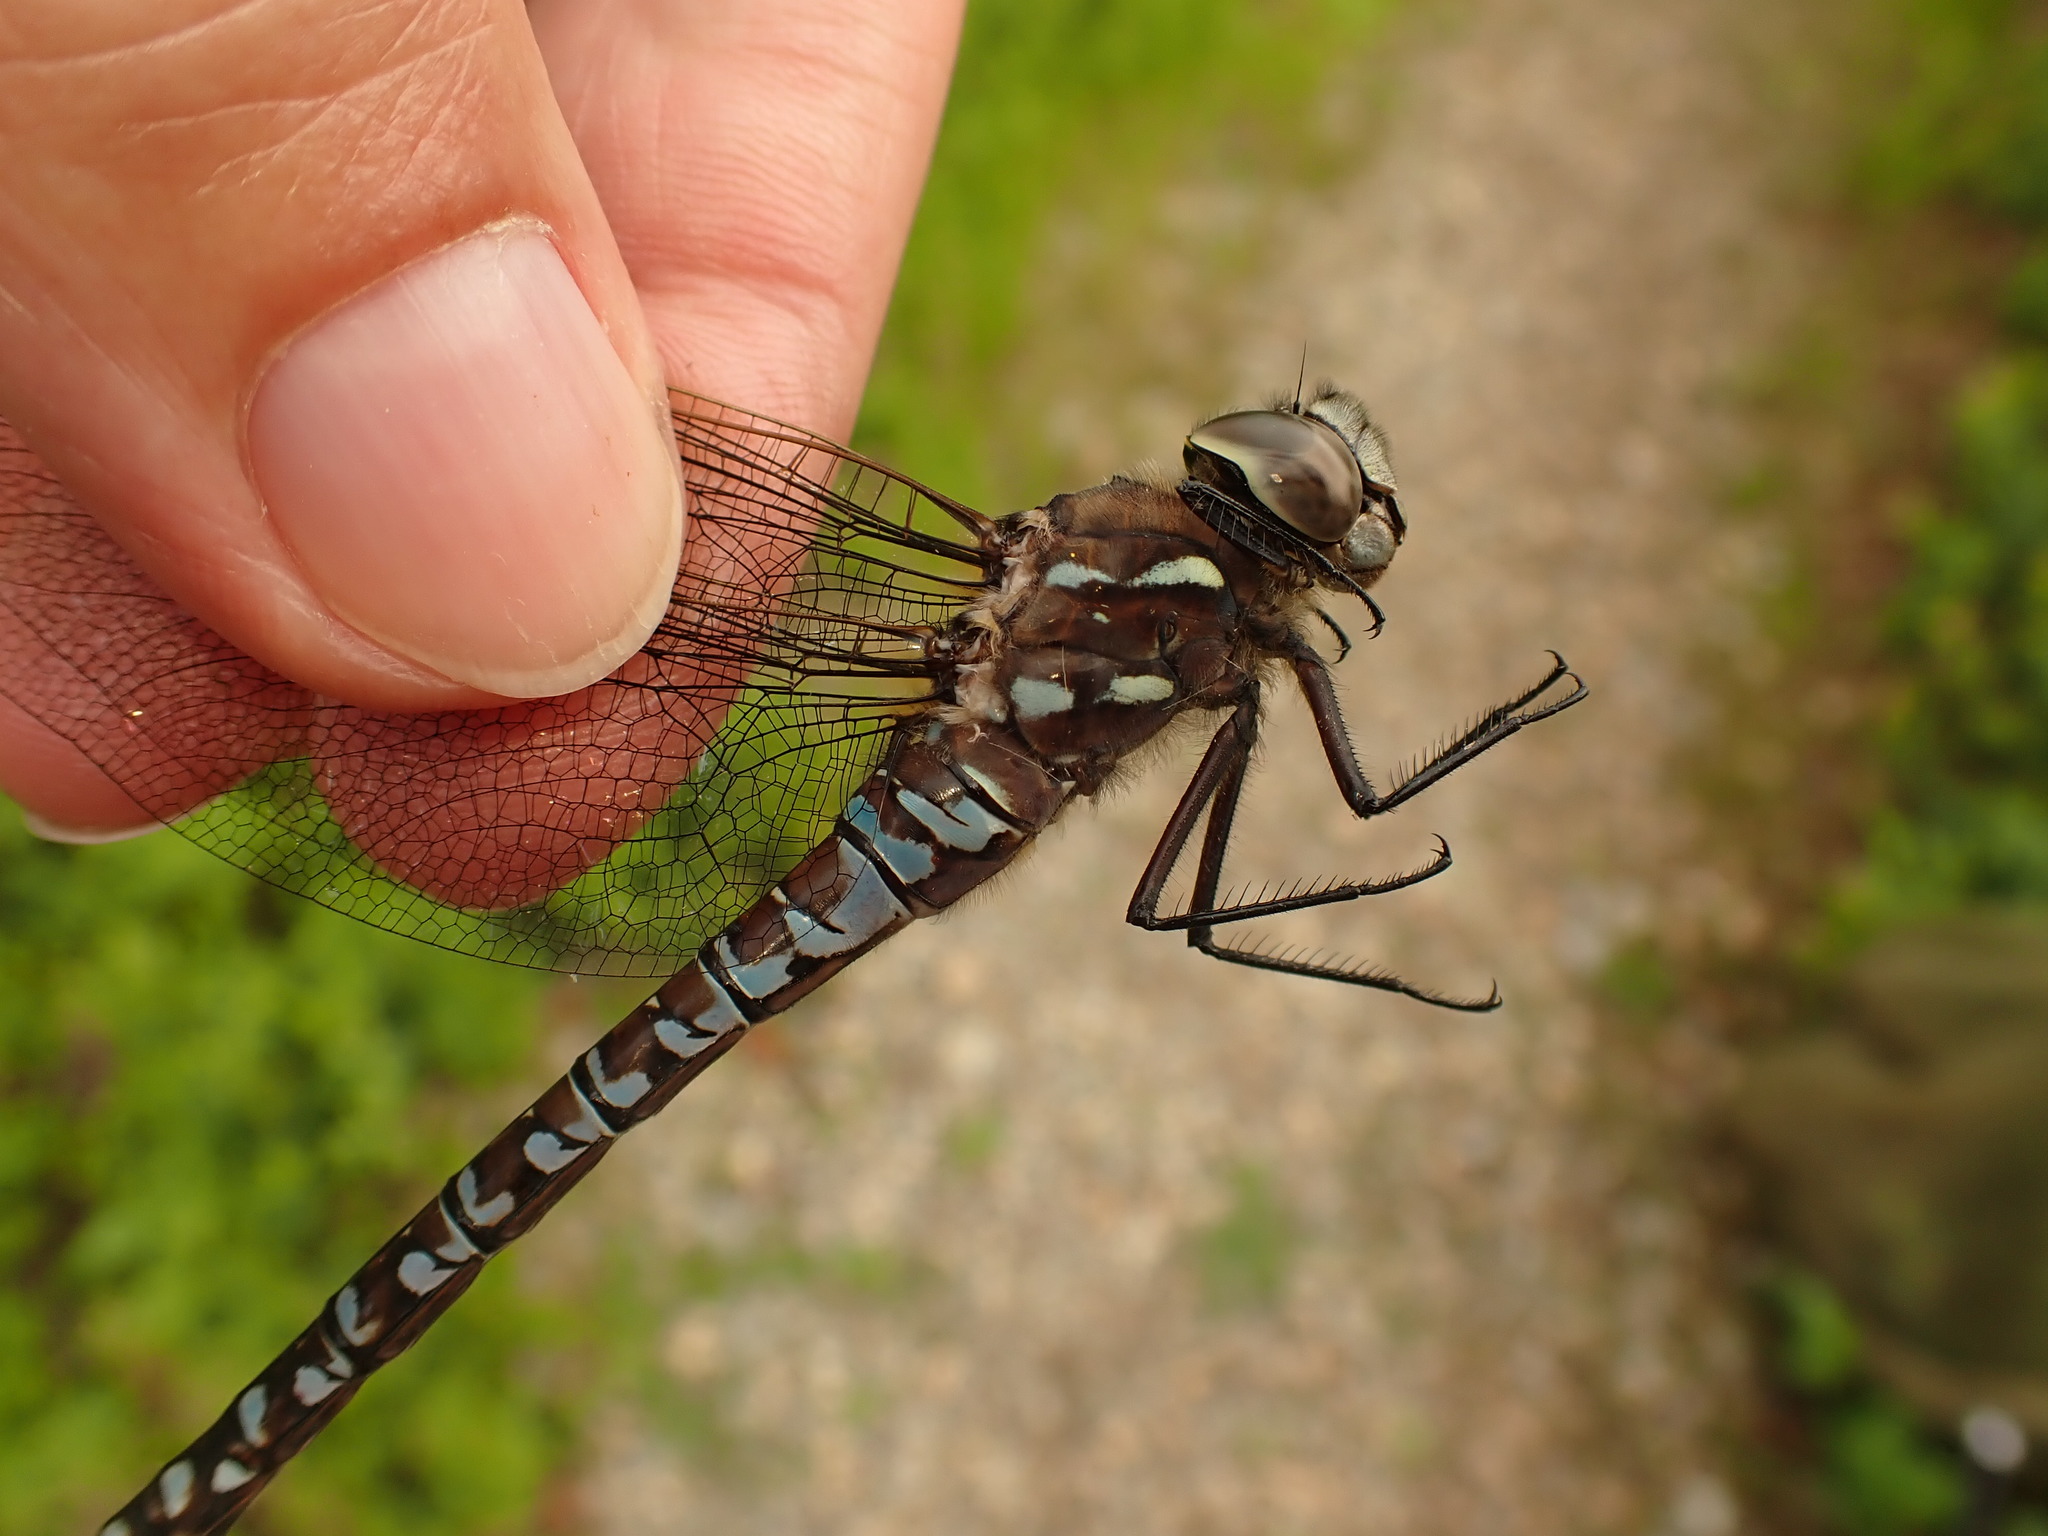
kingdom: Animalia
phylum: Arthropoda
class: Insecta
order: Odonata
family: Aeshnidae
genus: Aeshna
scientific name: Aeshna interrupta
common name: Variable darner
